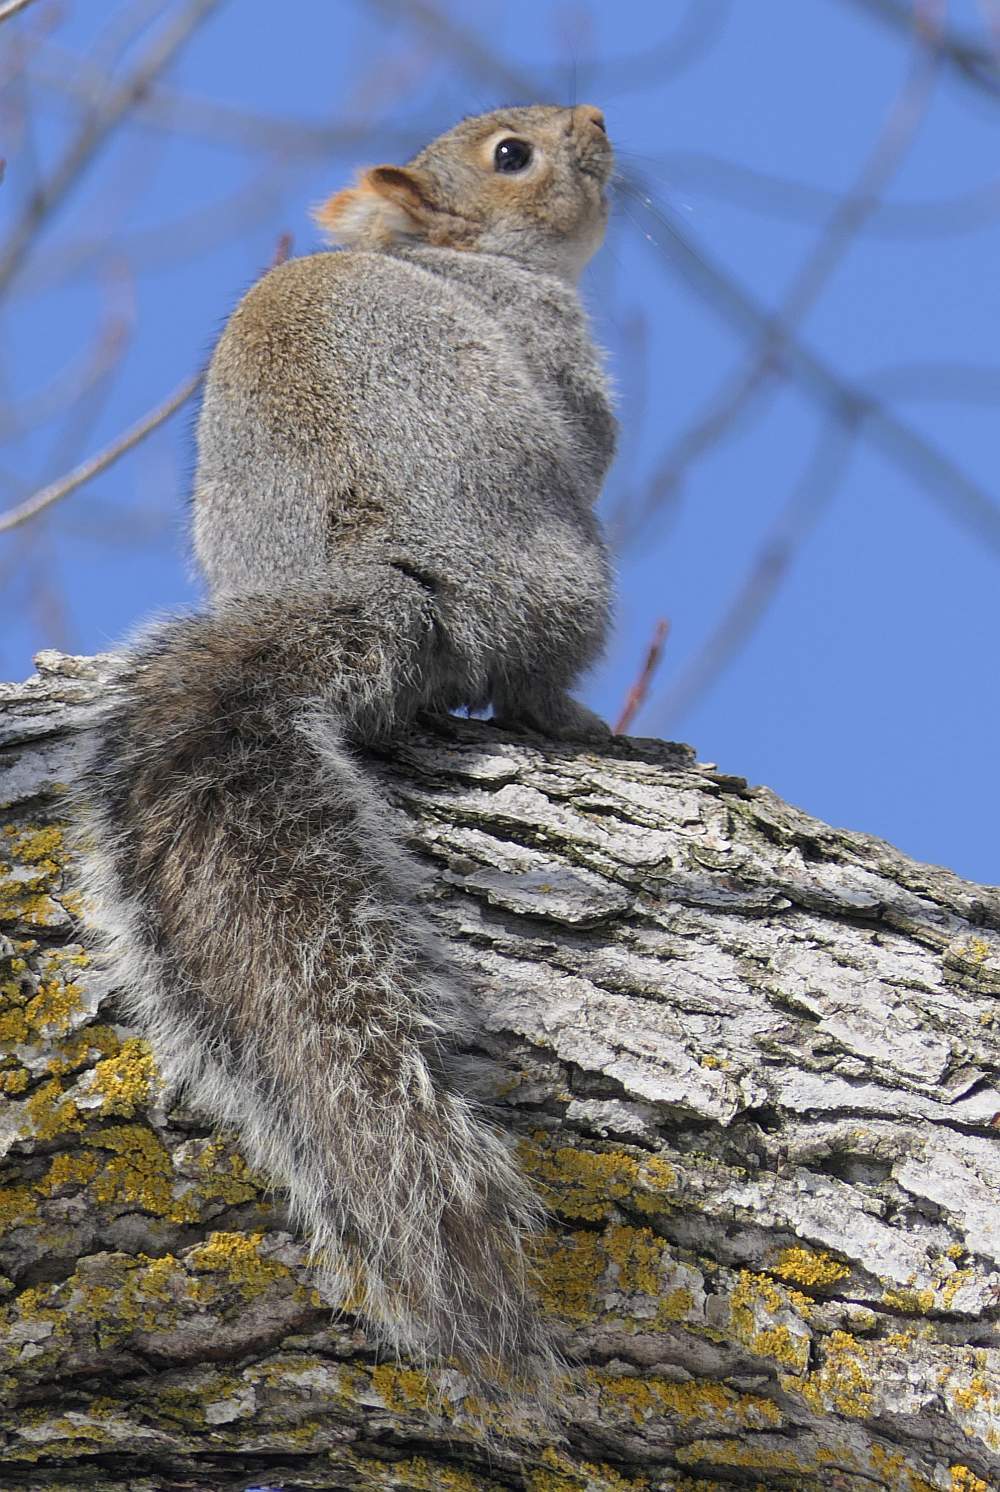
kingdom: Animalia
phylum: Chordata
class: Mammalia
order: Rodentia
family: Sciuridae
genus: Sciurus
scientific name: Sciurus carolinensis
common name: Eastern gray squirrel
